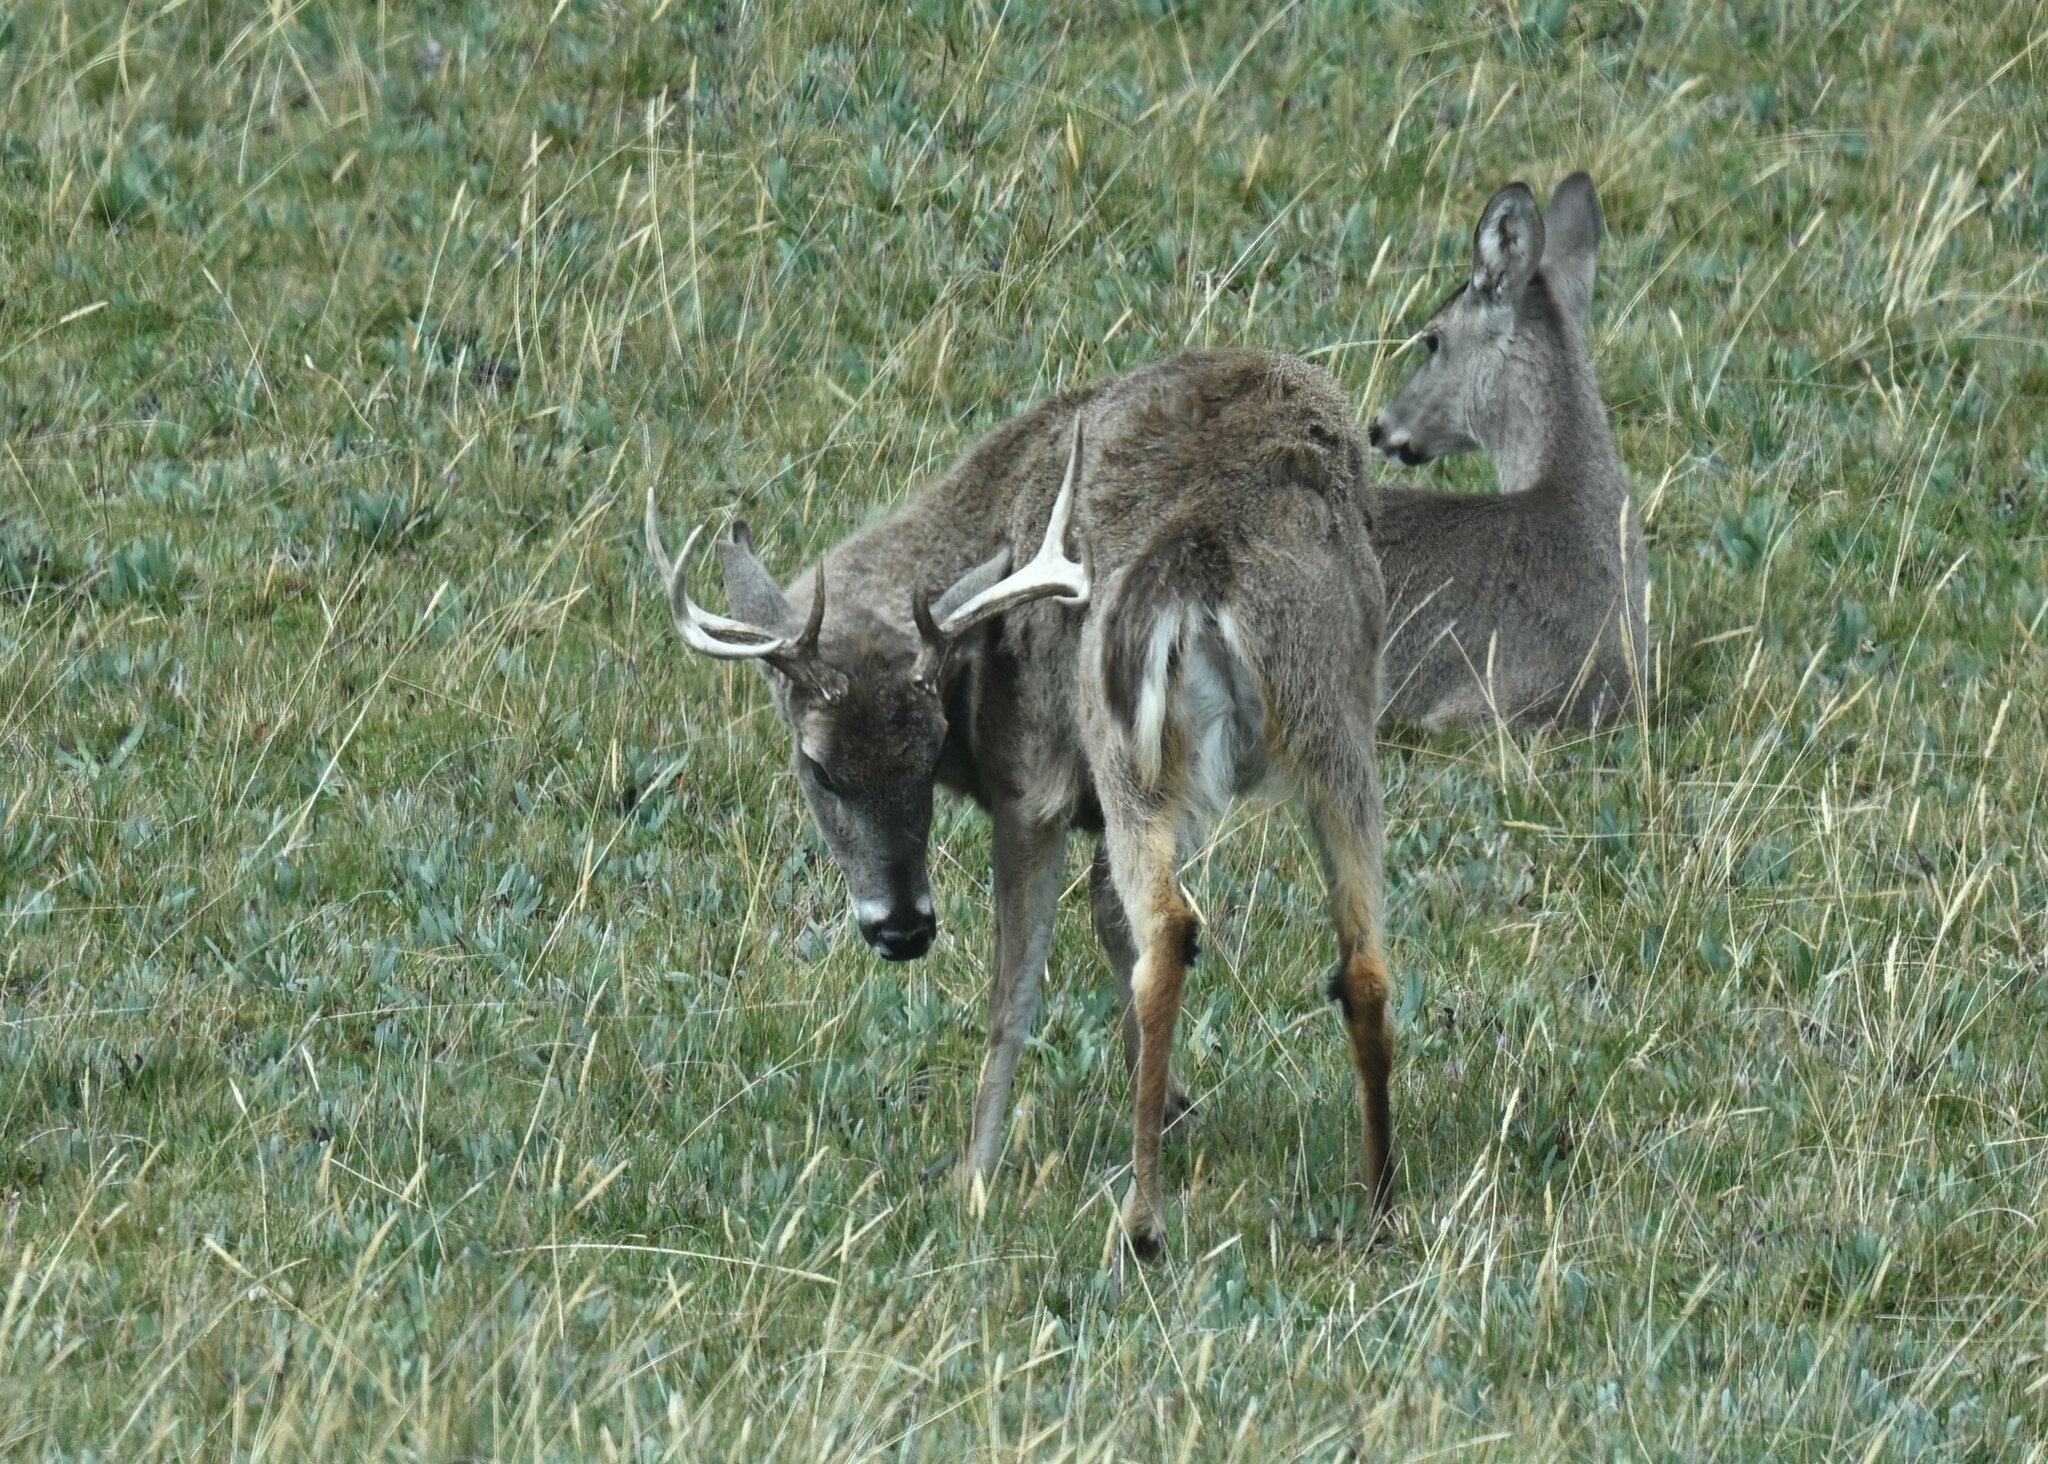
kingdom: Animalia
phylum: Chordata
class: Mammalia
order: Artiodactyla
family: Cervidae
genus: Odocoileus
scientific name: Odocoileus virginianus
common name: White-tailed deer
